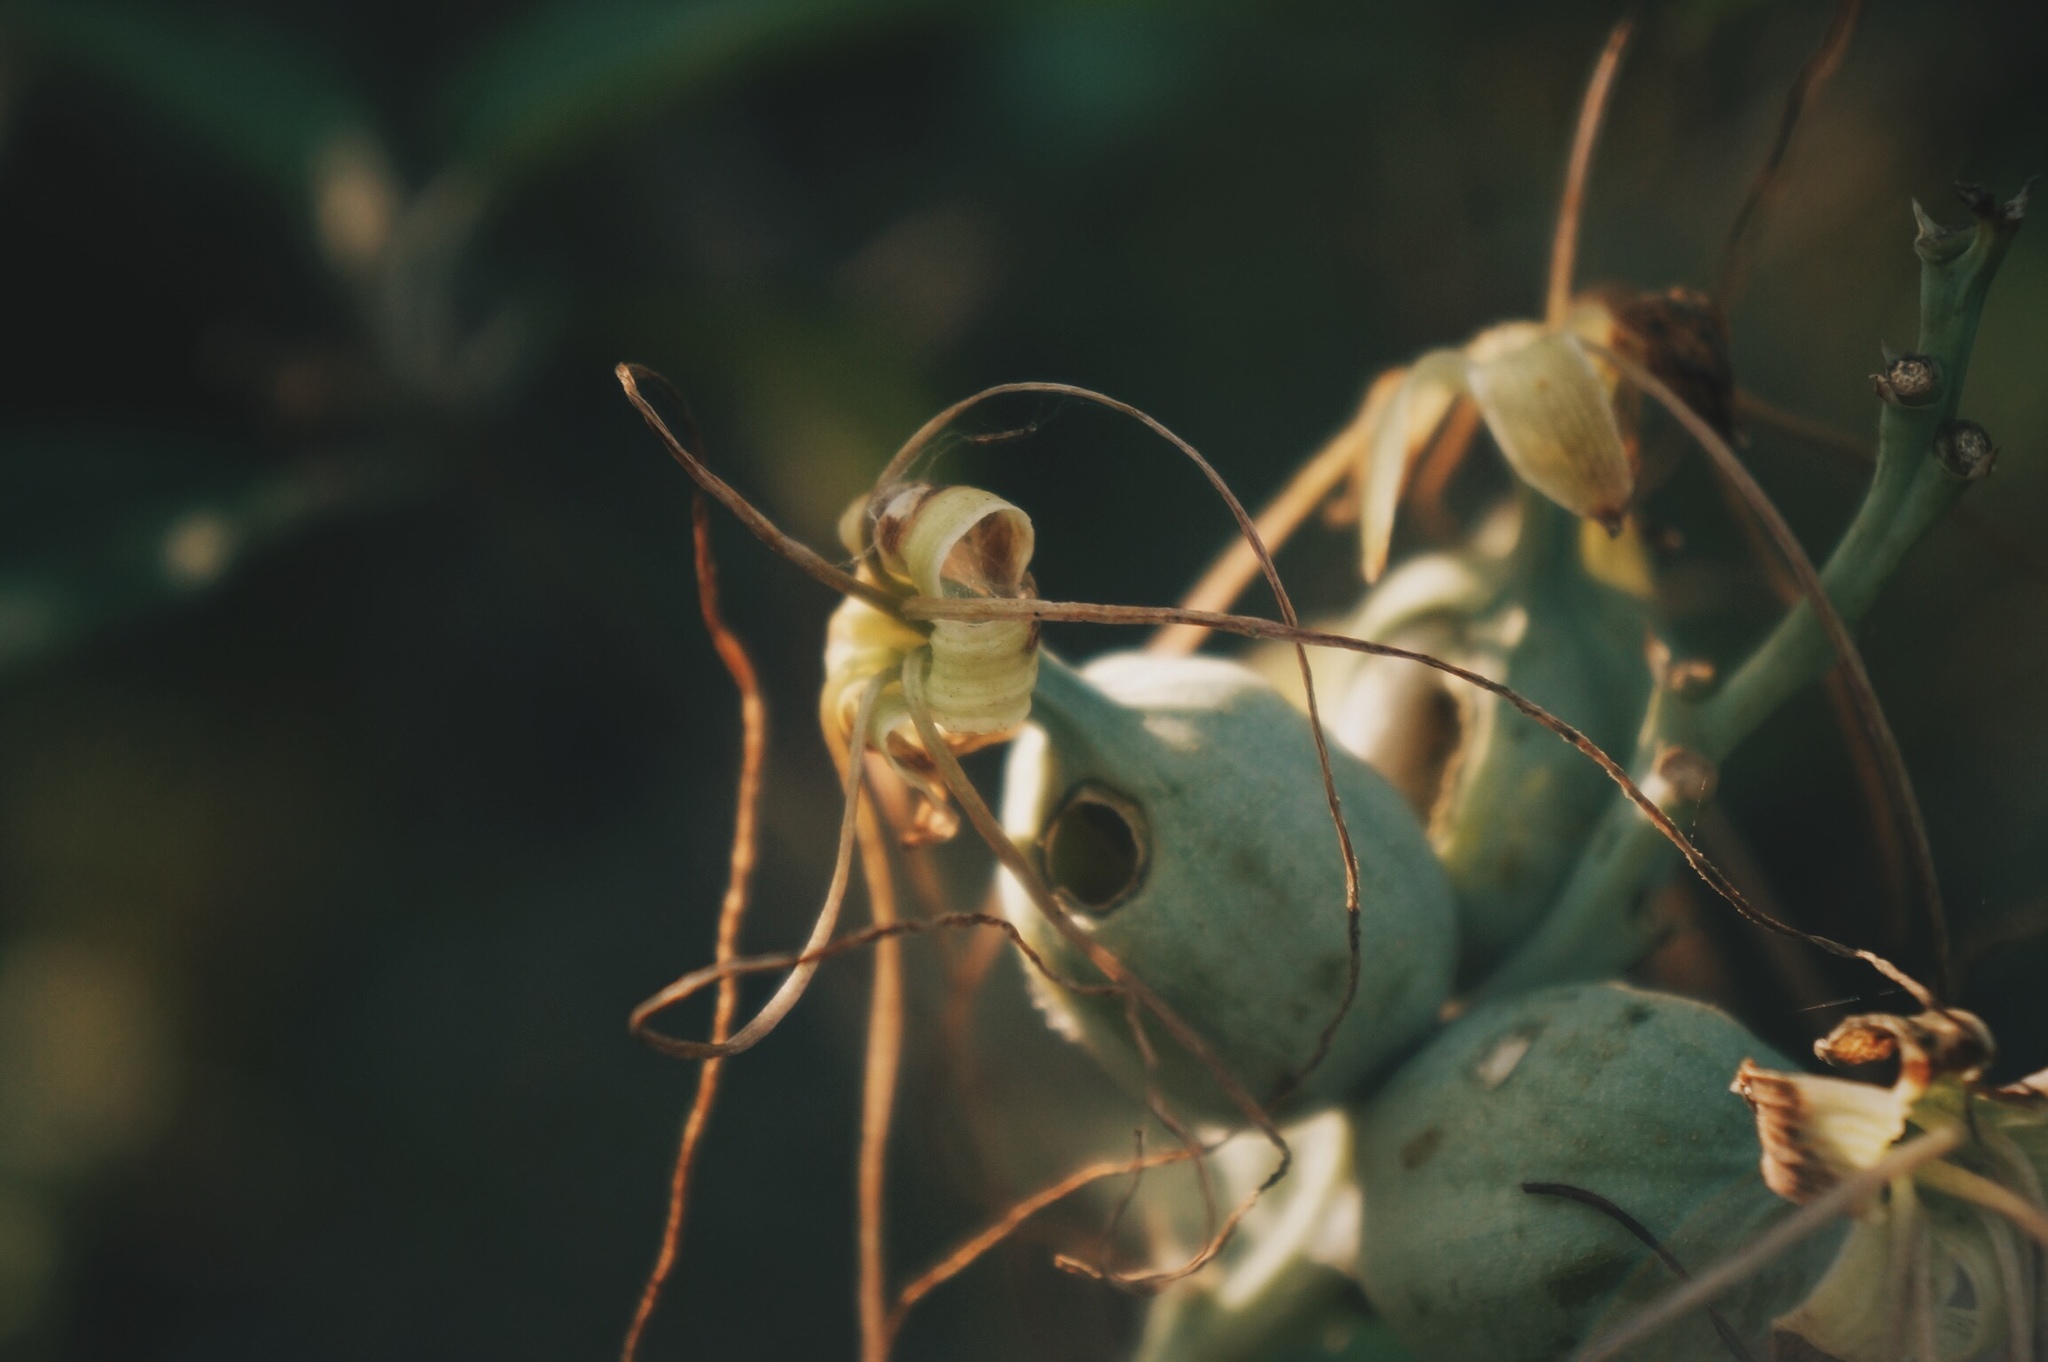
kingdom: Plantae
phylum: Tracheophyta
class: Liliopsida
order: Asparagales
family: Asparagaceae
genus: Agave
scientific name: Agave variegata
